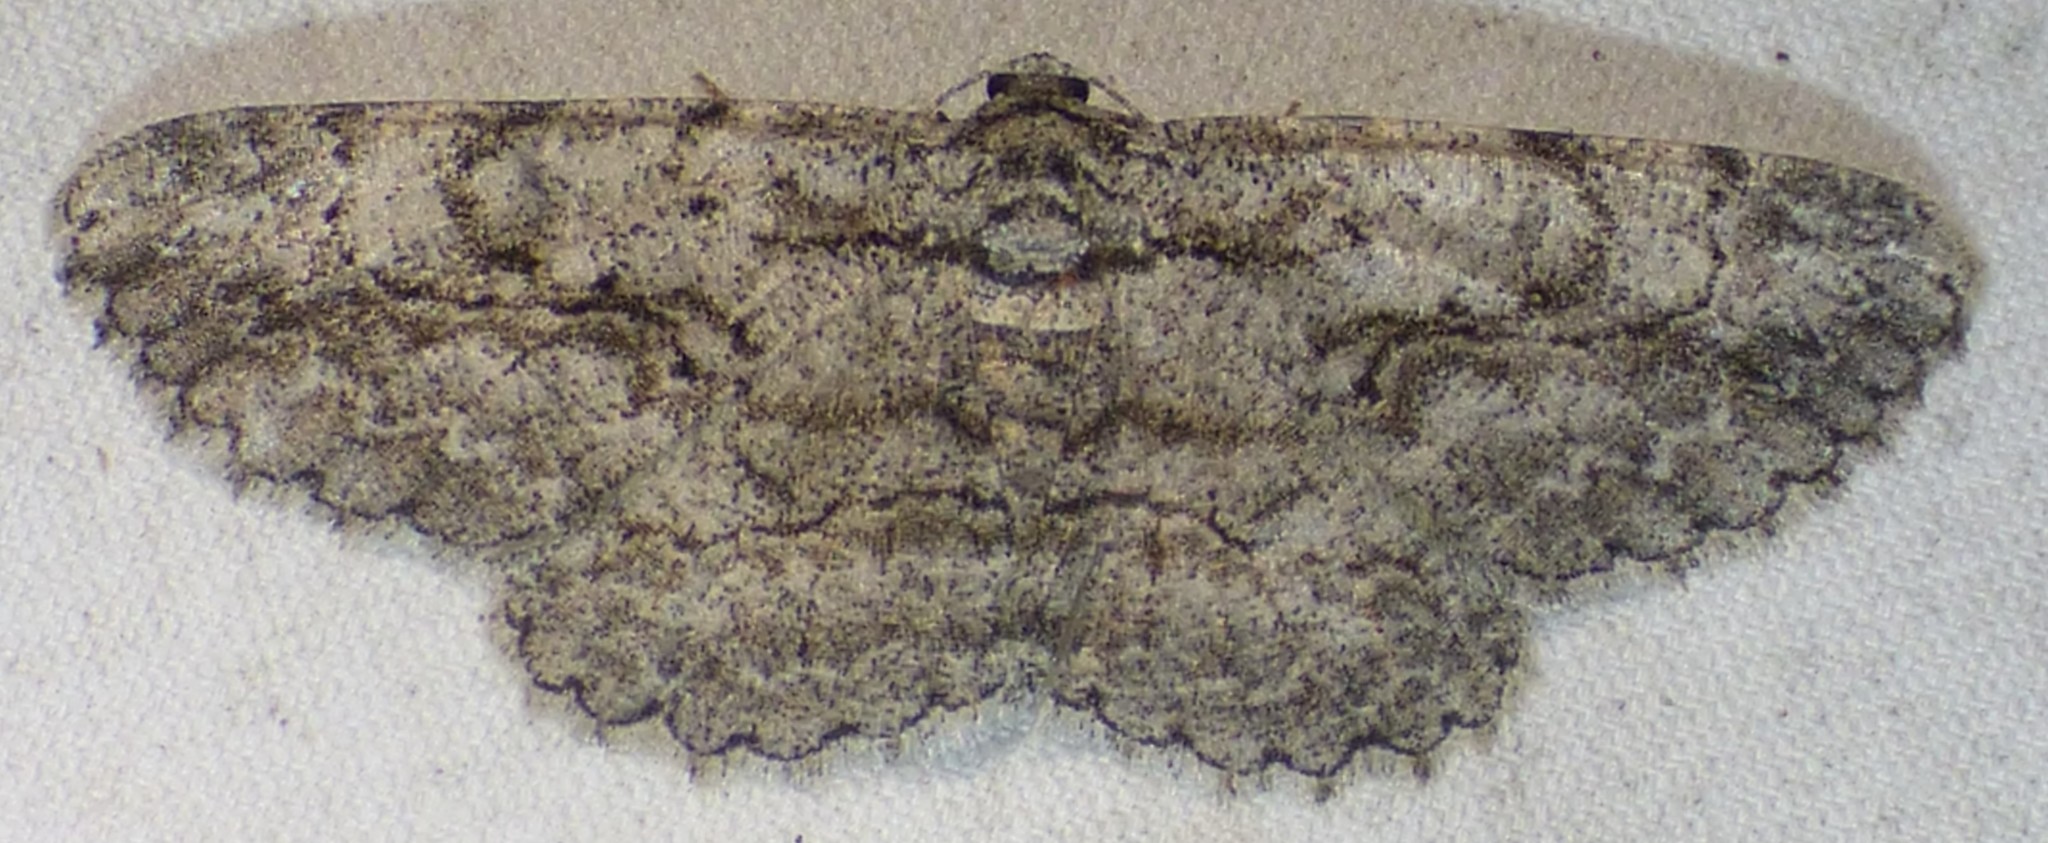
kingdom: Animalia
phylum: Arthropoda
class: Insecta
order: Lepidoptera
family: Geometridae
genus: Anavitrinella
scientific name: Anavitrinella pampinaria
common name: Common gray
